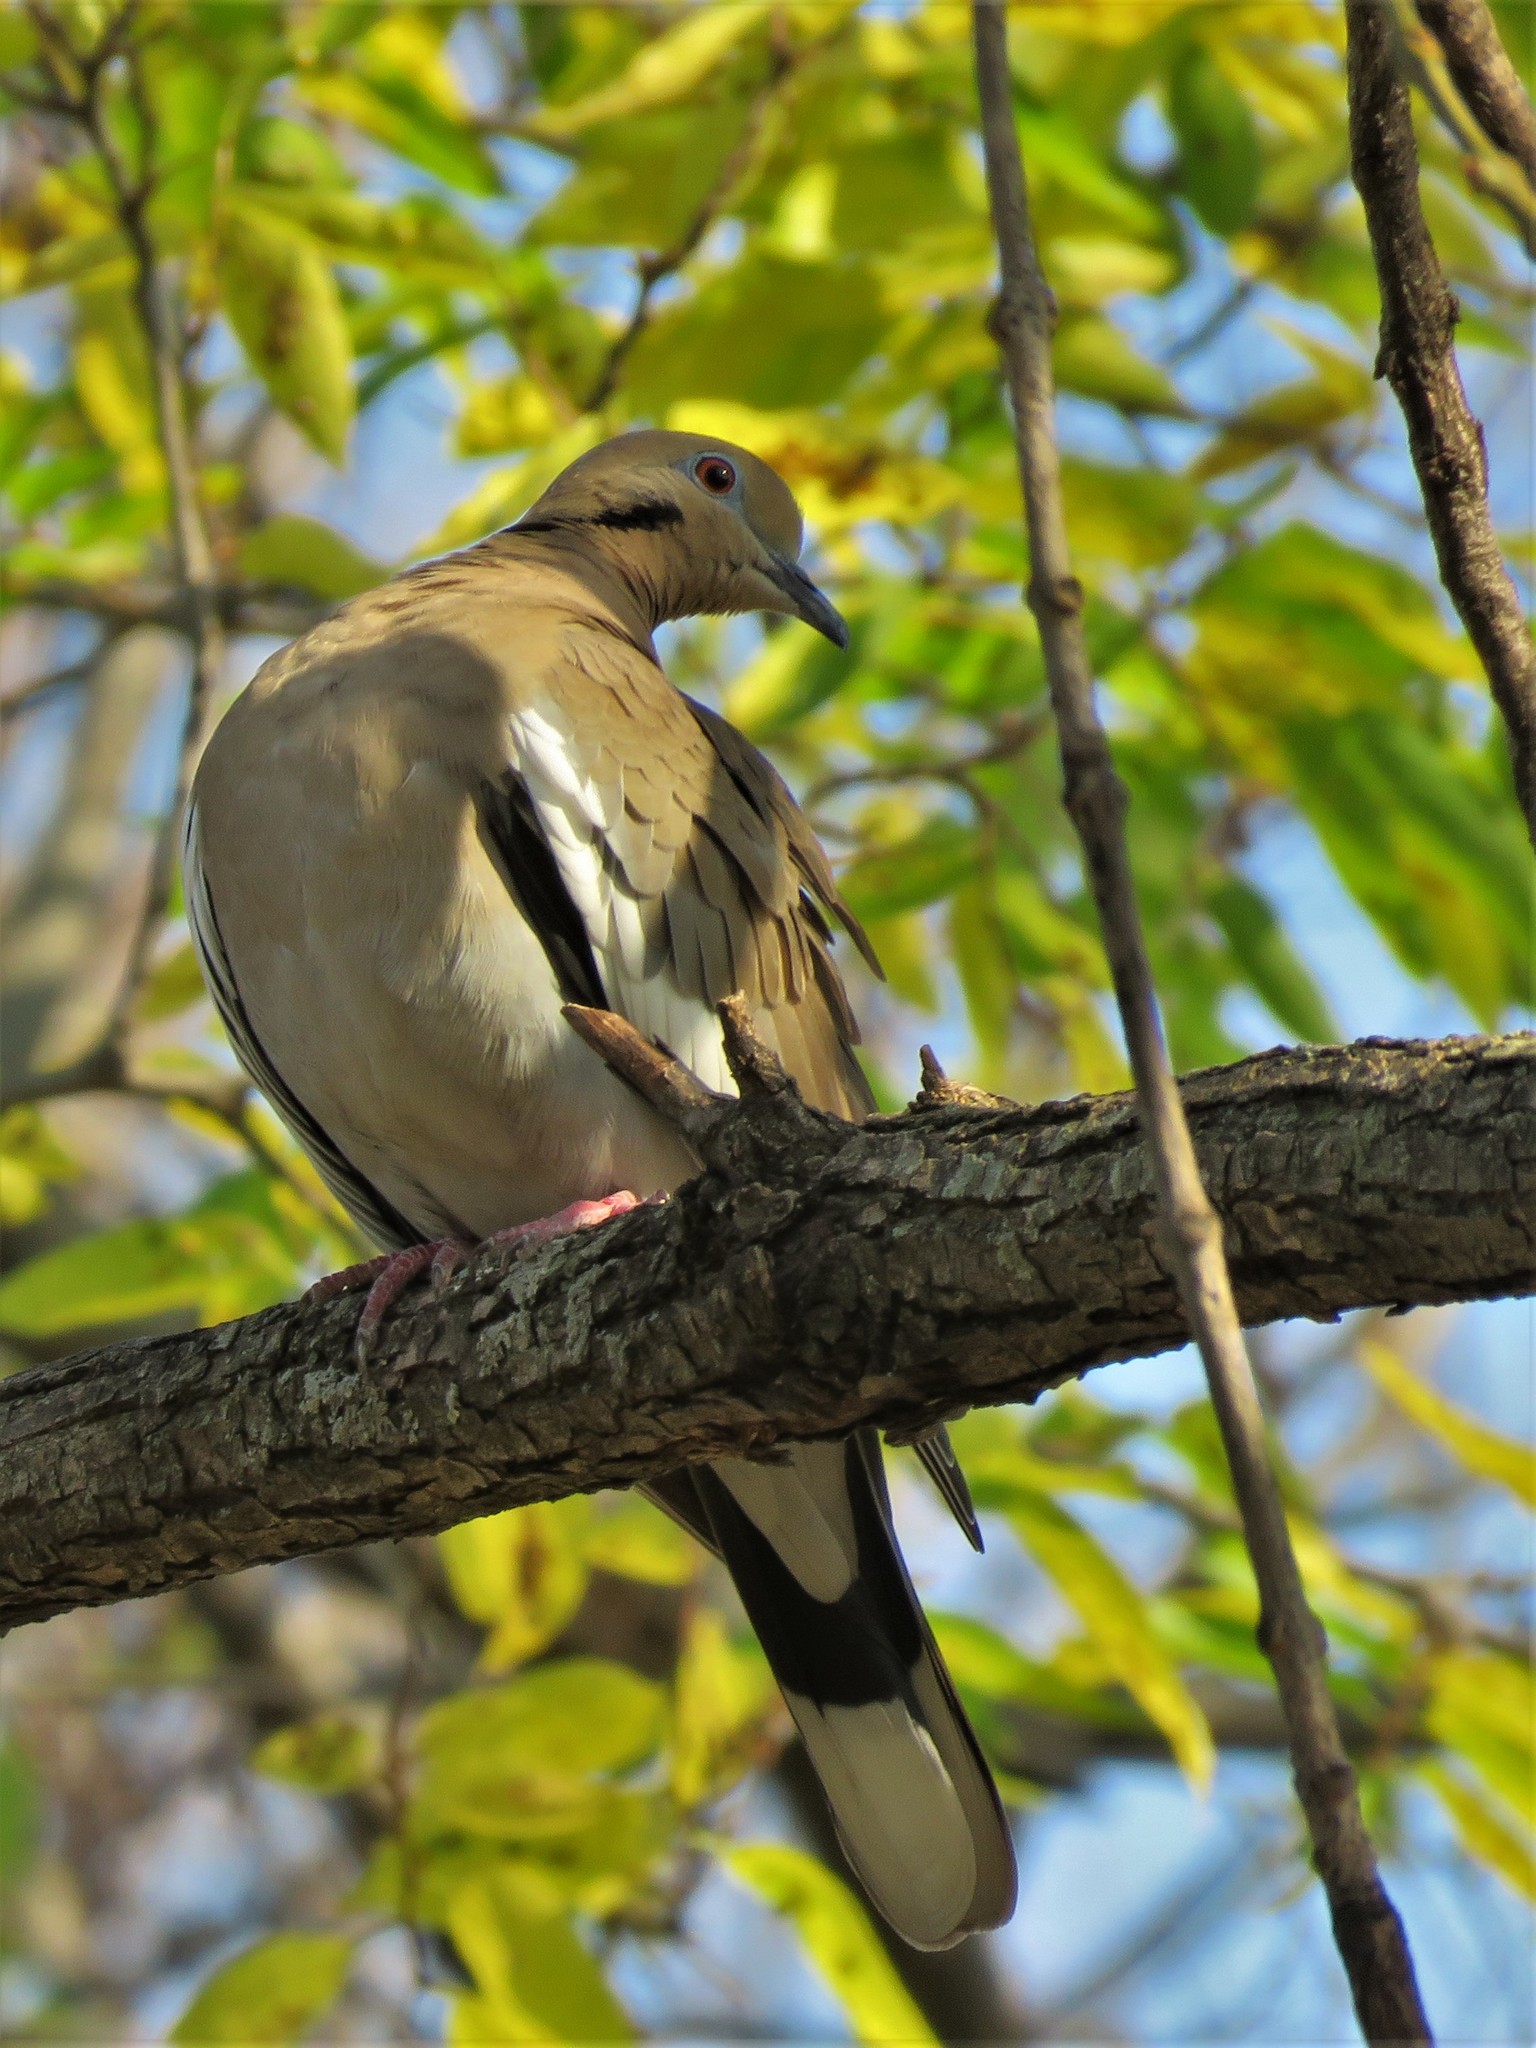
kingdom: Animalia
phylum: Chordata
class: Aves
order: Columbiformes
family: Columbidae
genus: Zenaida
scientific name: Zenaida asiatica
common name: White-winged dove
